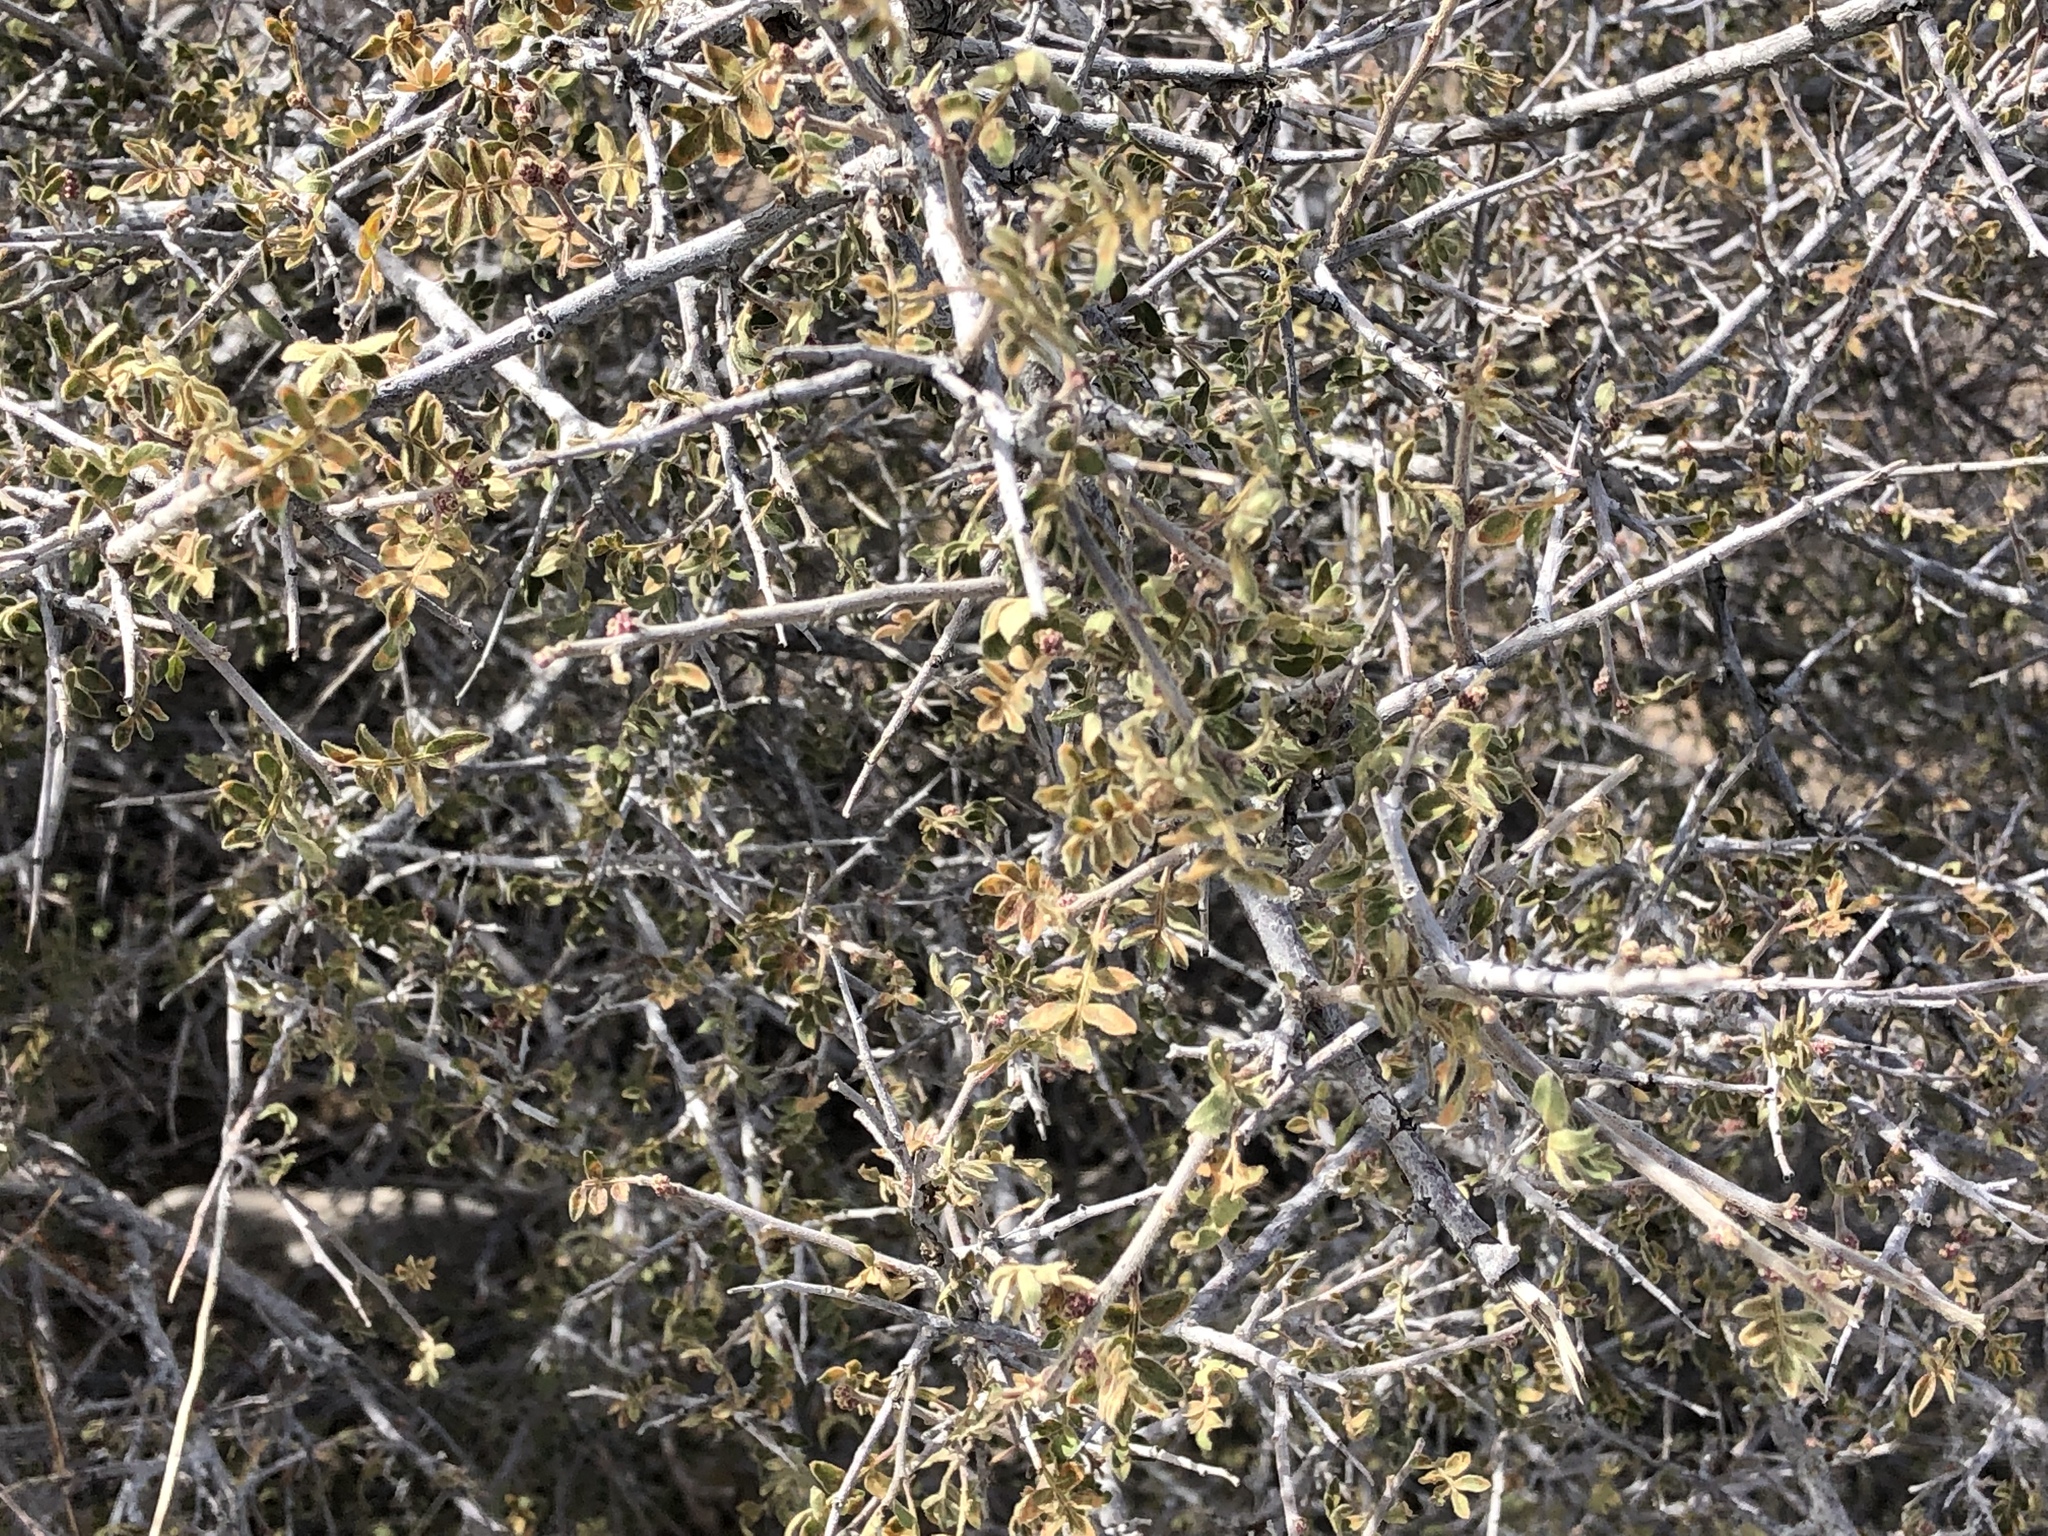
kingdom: Plantae
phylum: Tracheophyta
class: Magnoliopsida
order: Sapindales
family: Anacardiaceae
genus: Rhus
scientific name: Rhus microphylla
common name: Desert sumac
